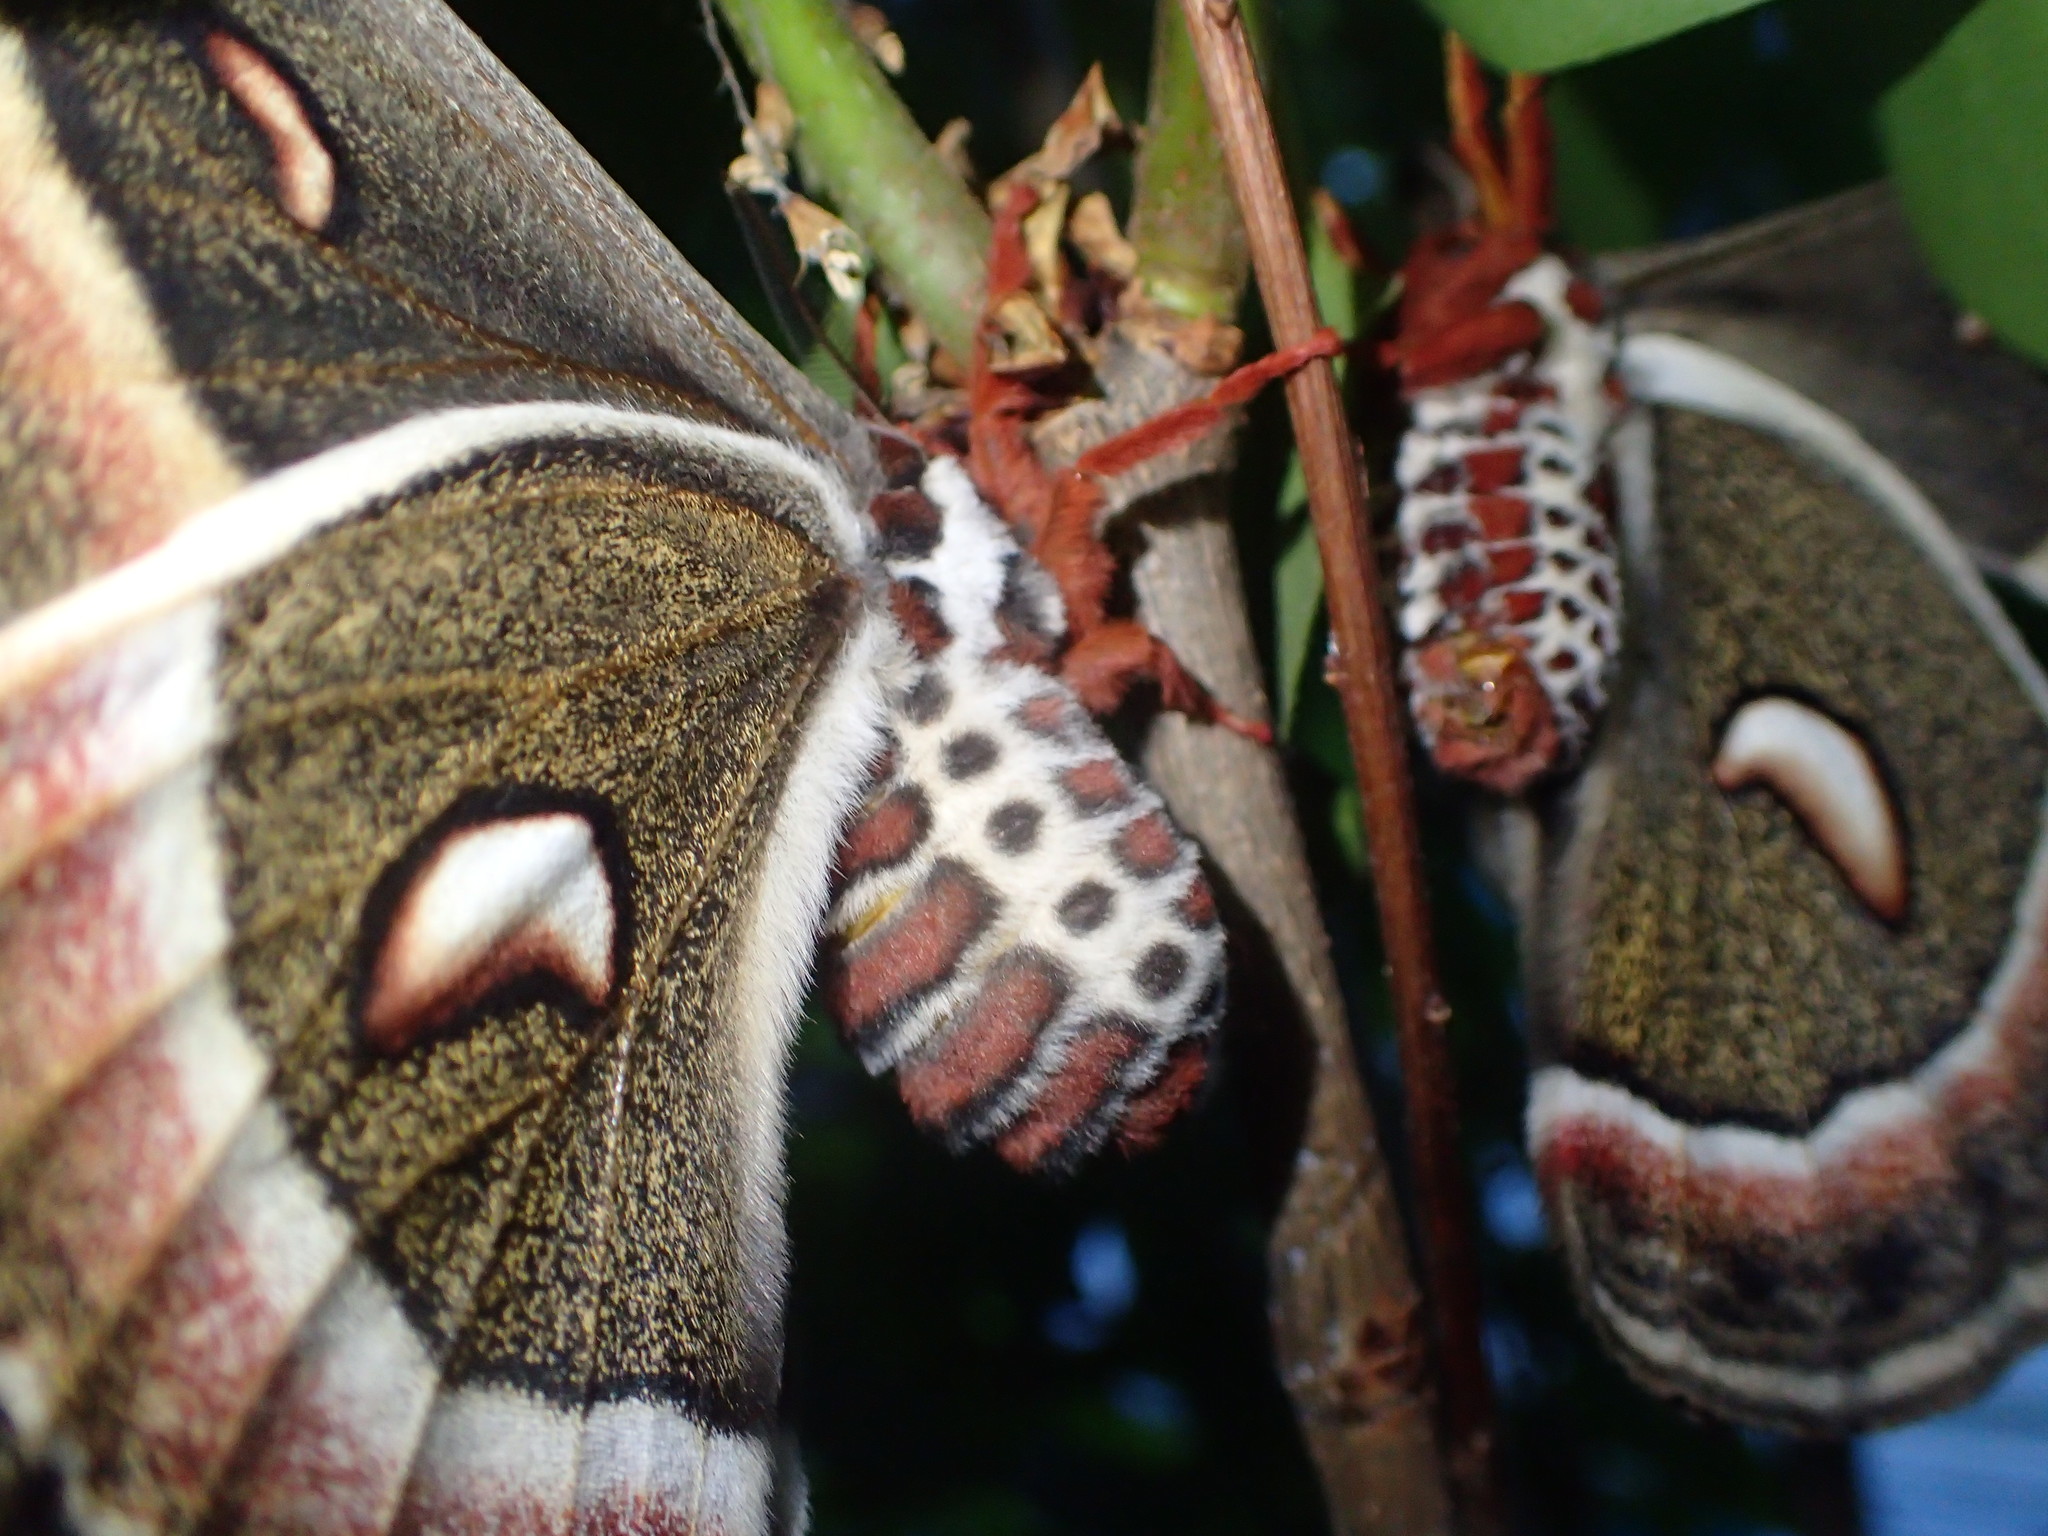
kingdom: Animalia
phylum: Arthropoda
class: Insecta
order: Lepidoptera
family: Saturniidae
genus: Hyalophora
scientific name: Hyalophora cecropia
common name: Cecropia silkmoth
